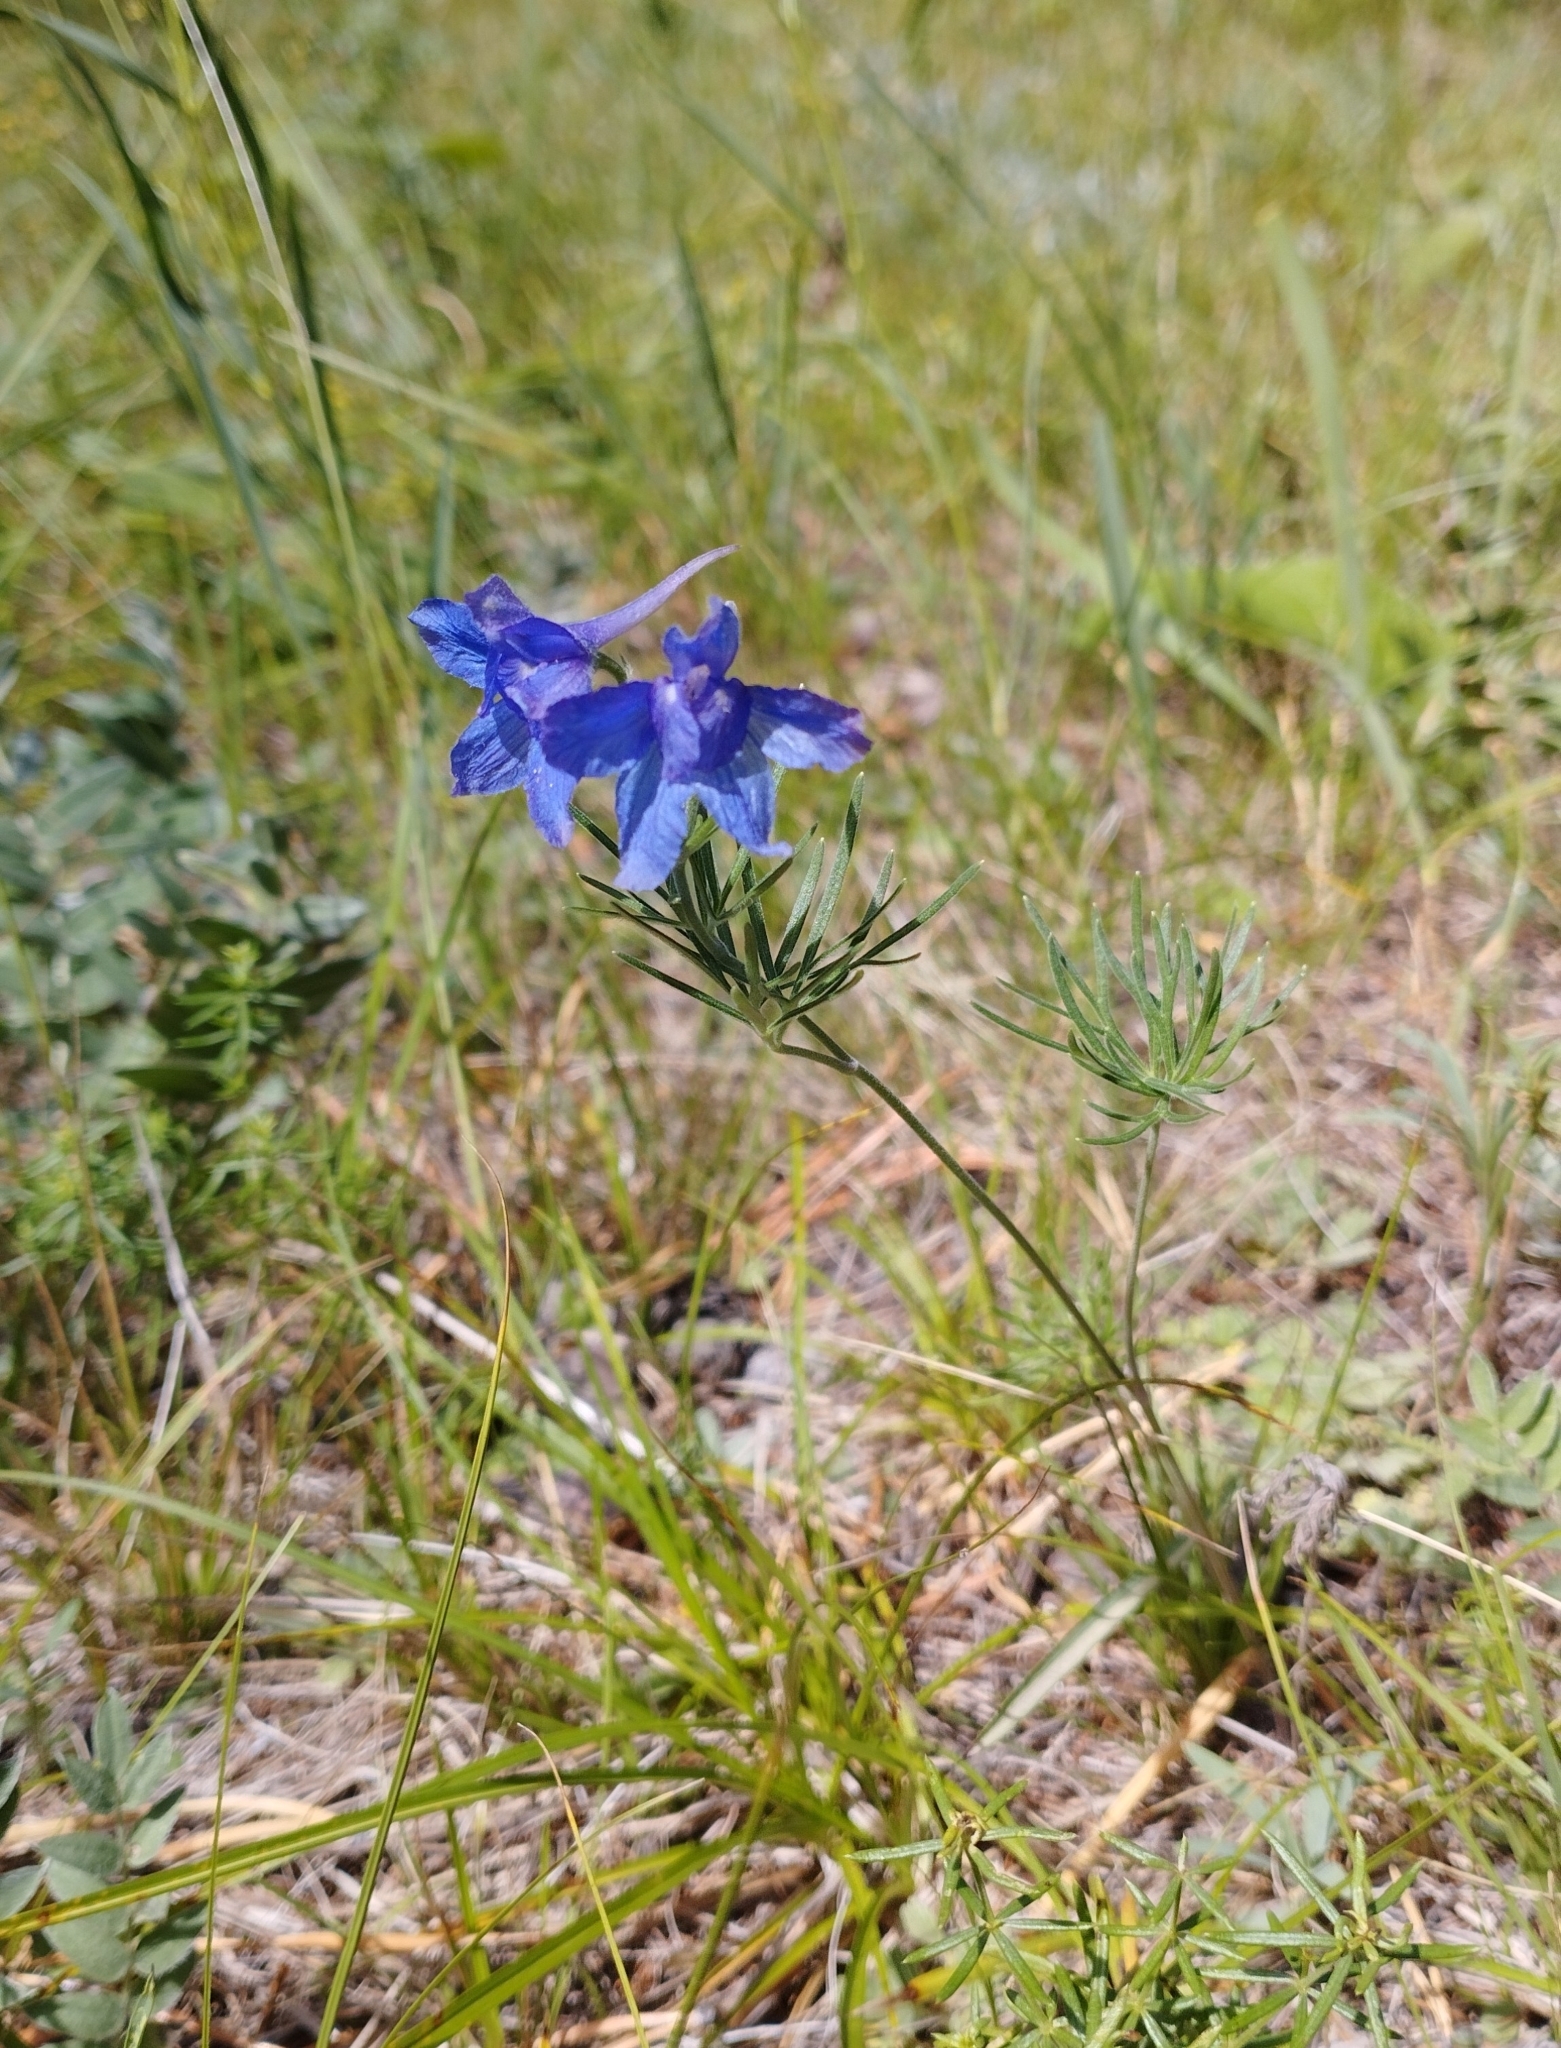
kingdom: Plantae
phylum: Tracheophyta
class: Magnoliopsida
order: Ranunculales
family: Ranunculaceae
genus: Delphinium
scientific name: Delphinium grandiflorum
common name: Siberian larkspur
